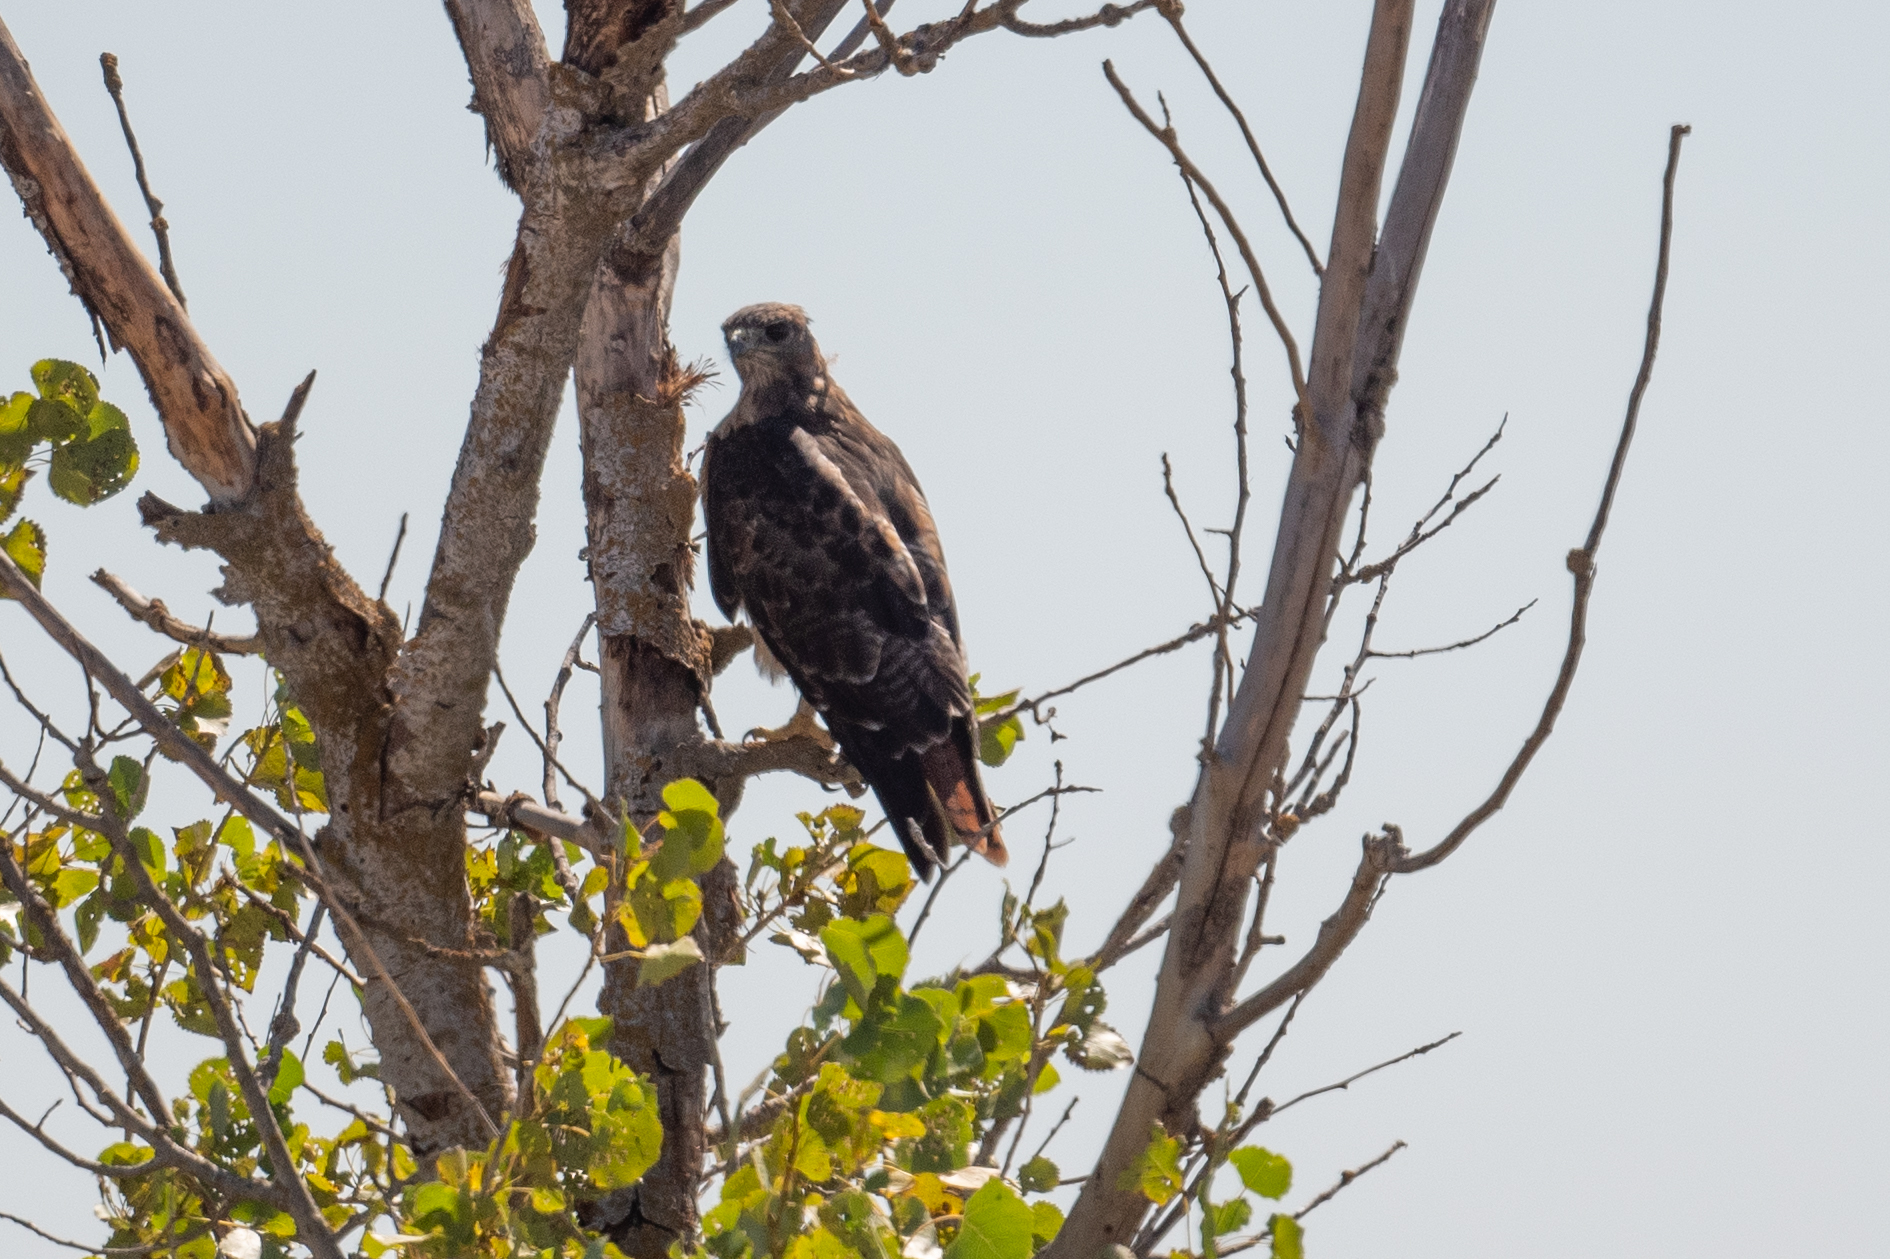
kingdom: Animalia
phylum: Chordata
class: Aves
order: Accipitriformes
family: Accipitridae
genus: Buteo
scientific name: Buteo jamaicensis
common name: Red-tailed hawk
